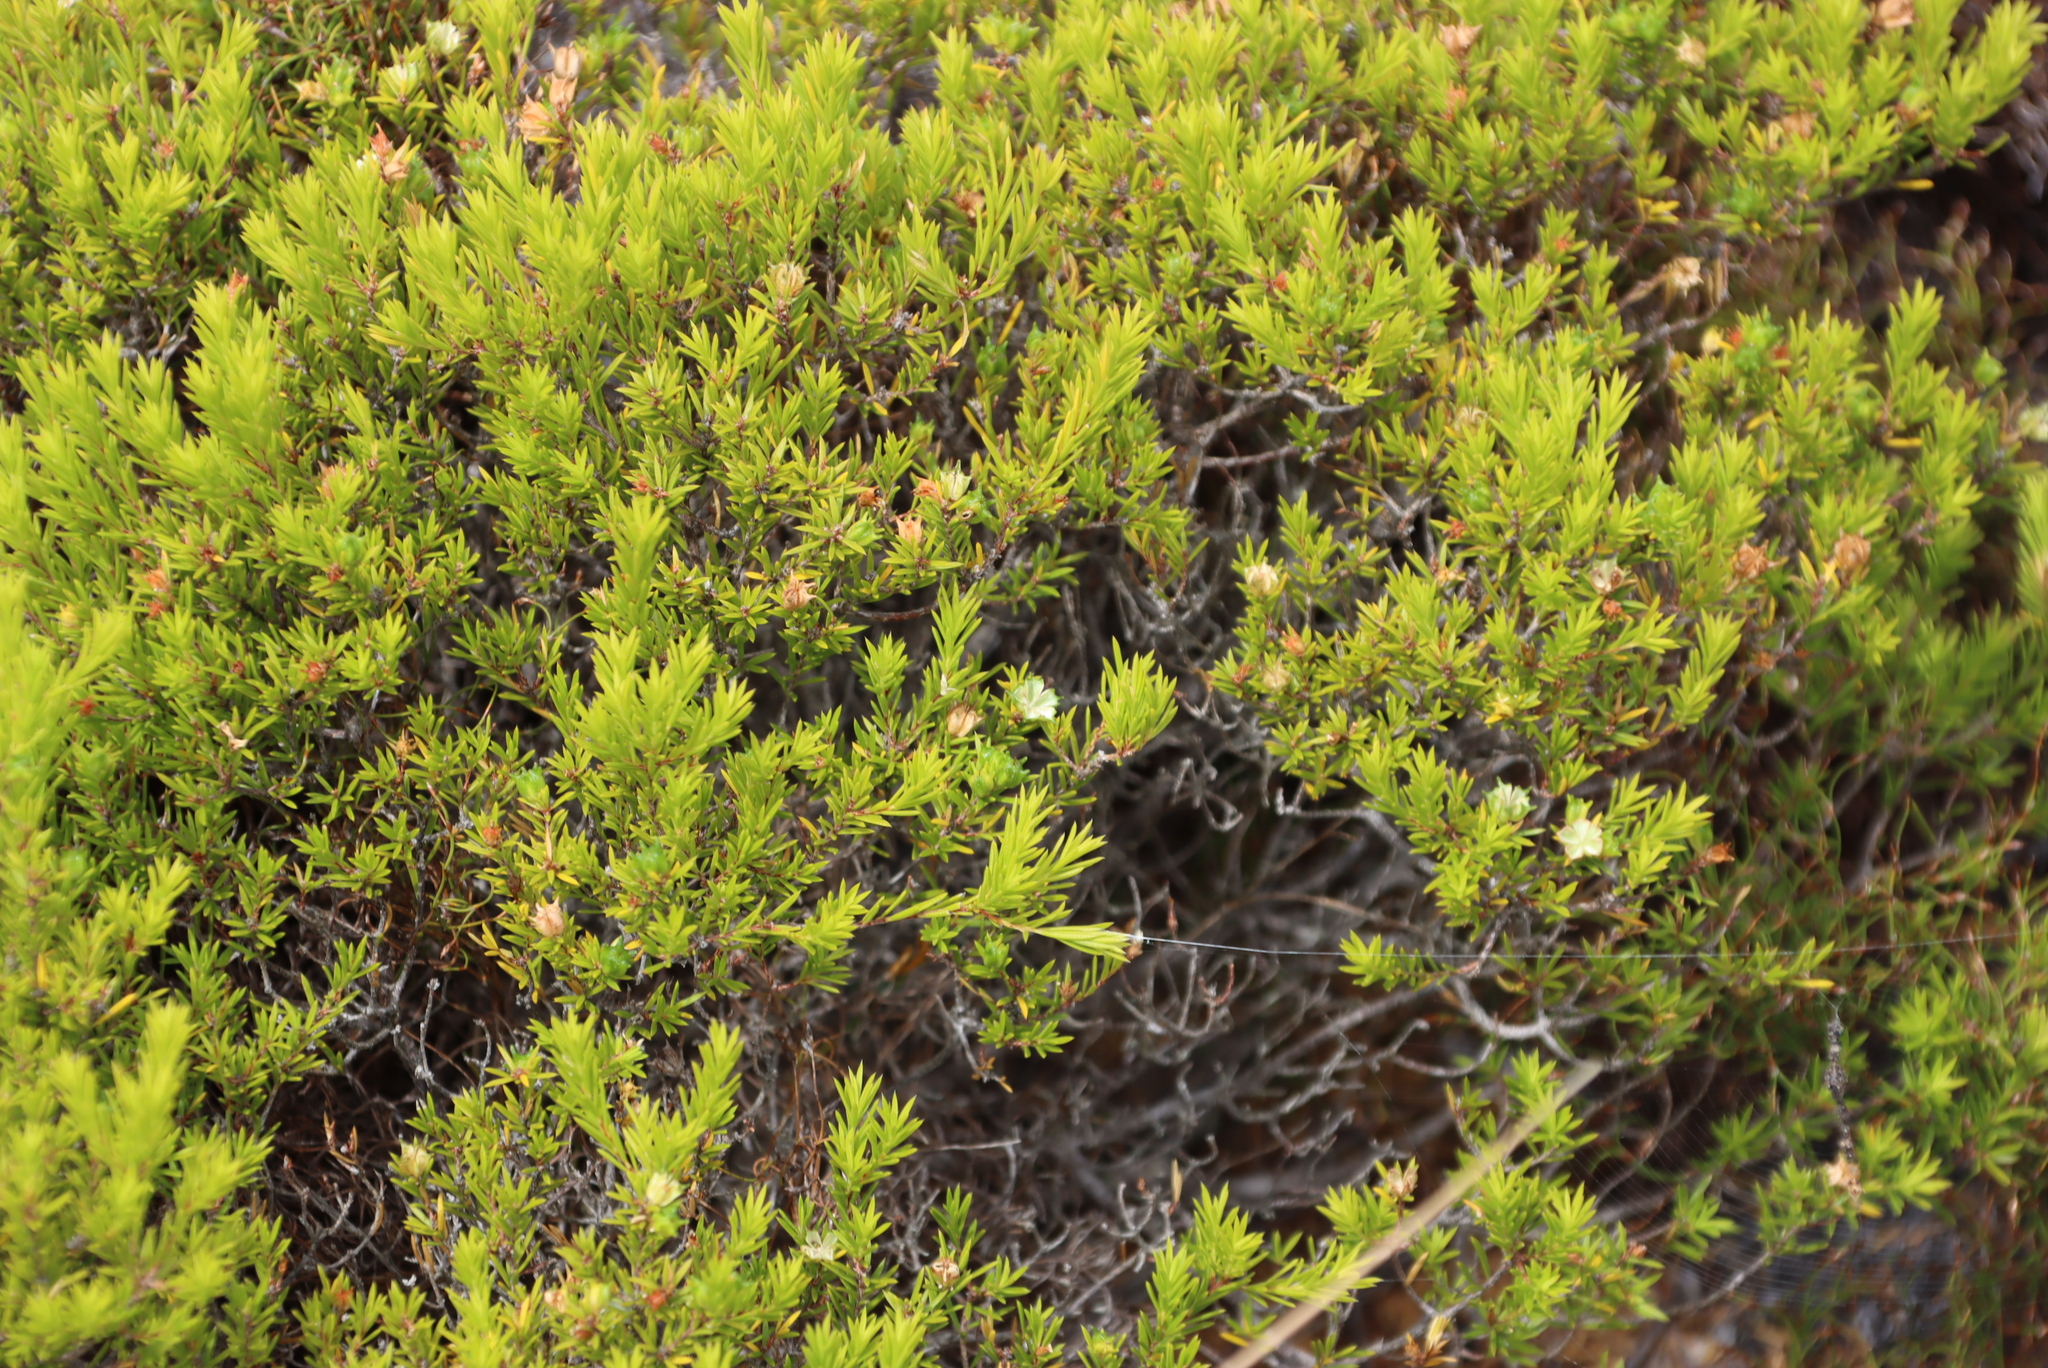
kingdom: Plantae
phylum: Tracheophyta
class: Magnoliopsida
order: Sapindales
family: Rutaceae
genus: Coleonema
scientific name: Coleonema album
